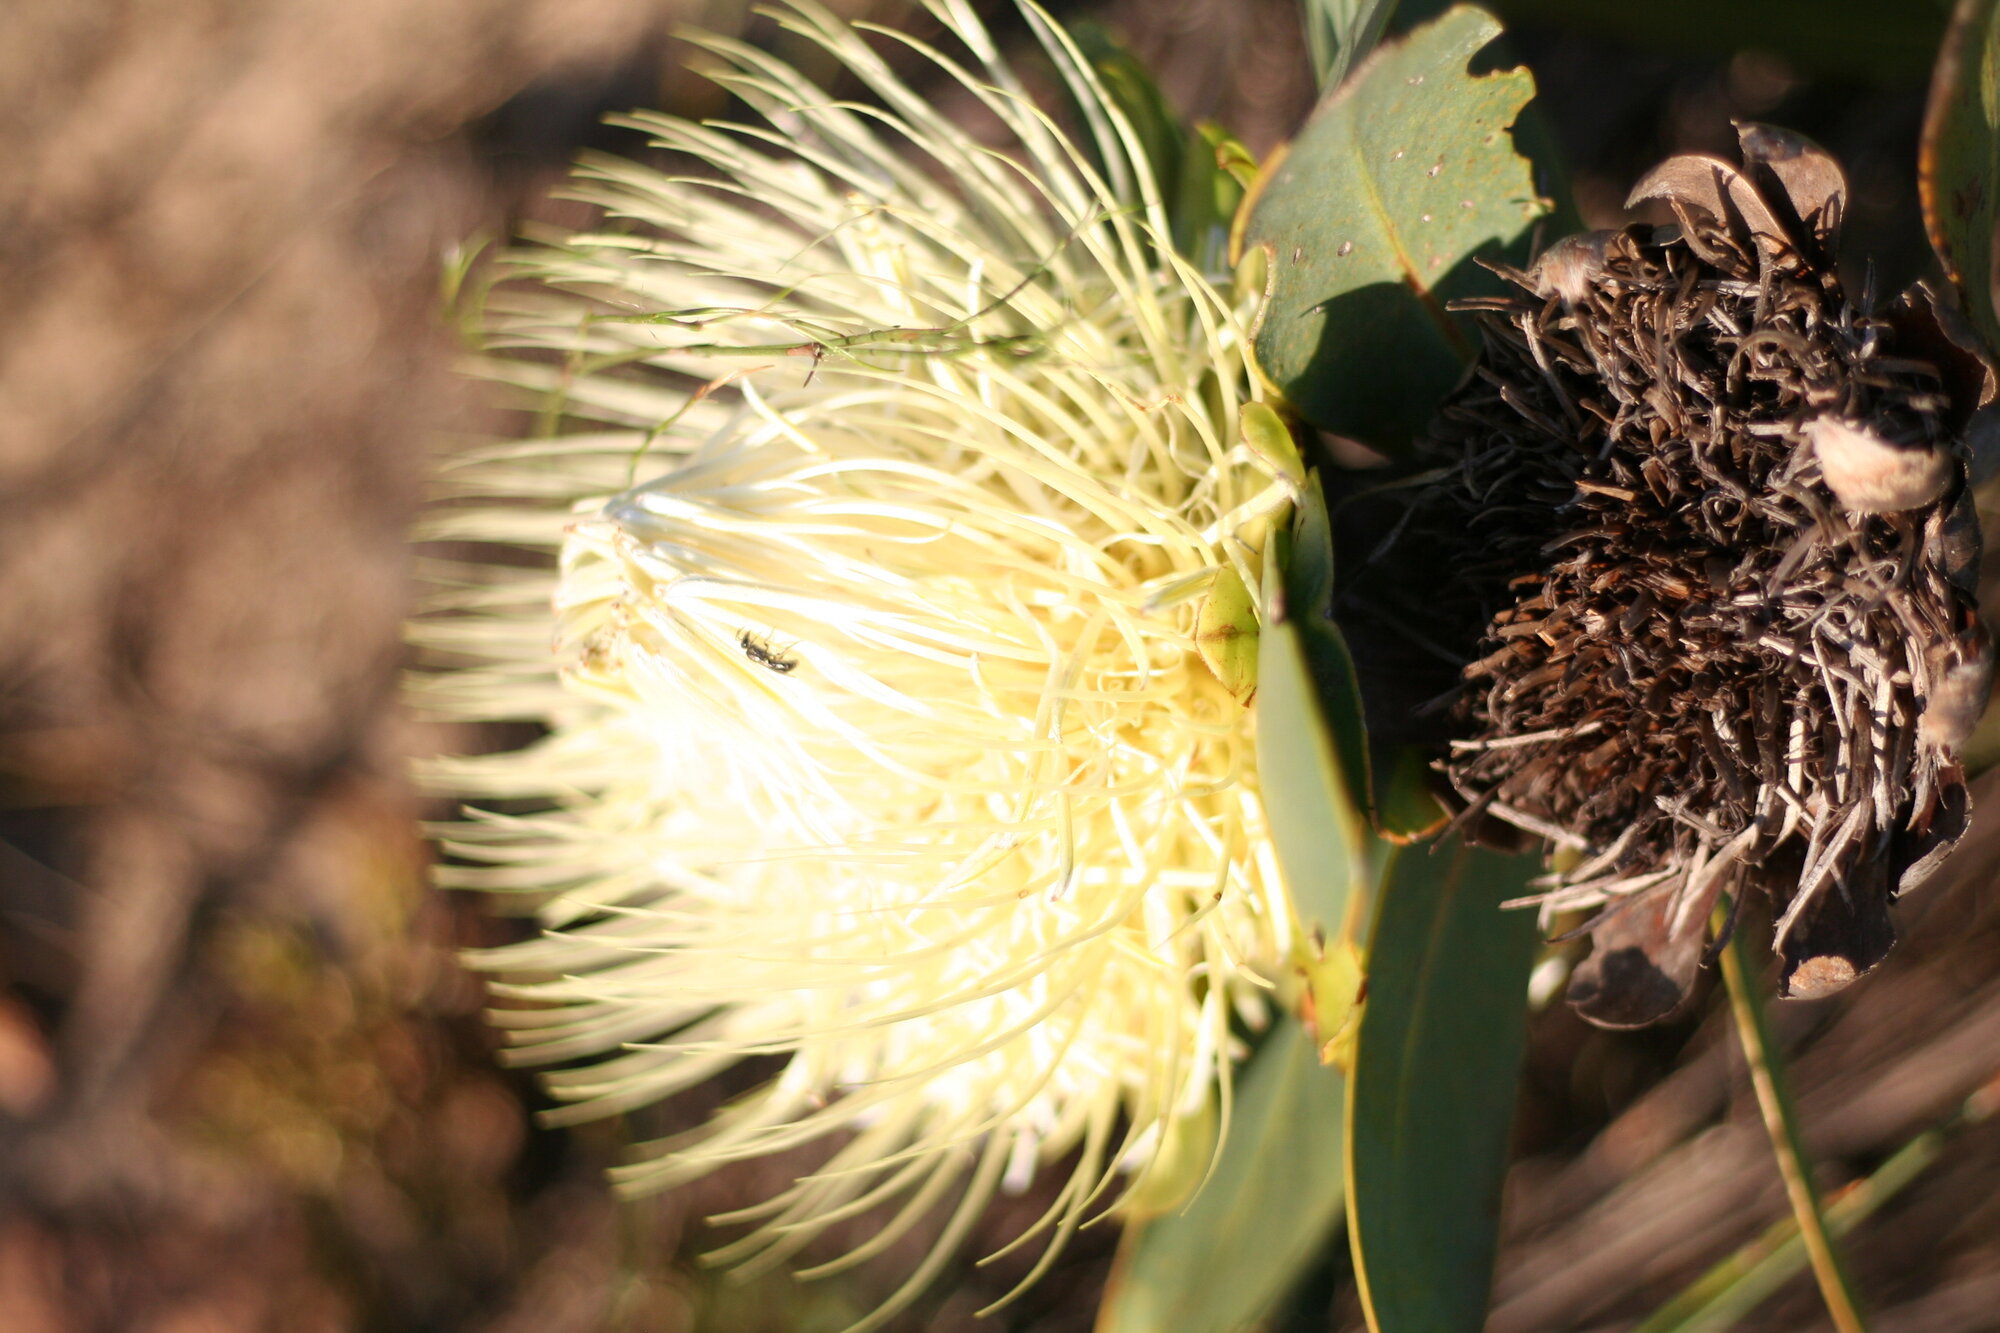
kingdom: Plantae
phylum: Tracheophyta
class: Magnoliopsida
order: Proteales
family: Proteaceae
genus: Protea
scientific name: Protea nitida
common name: Tree protea
